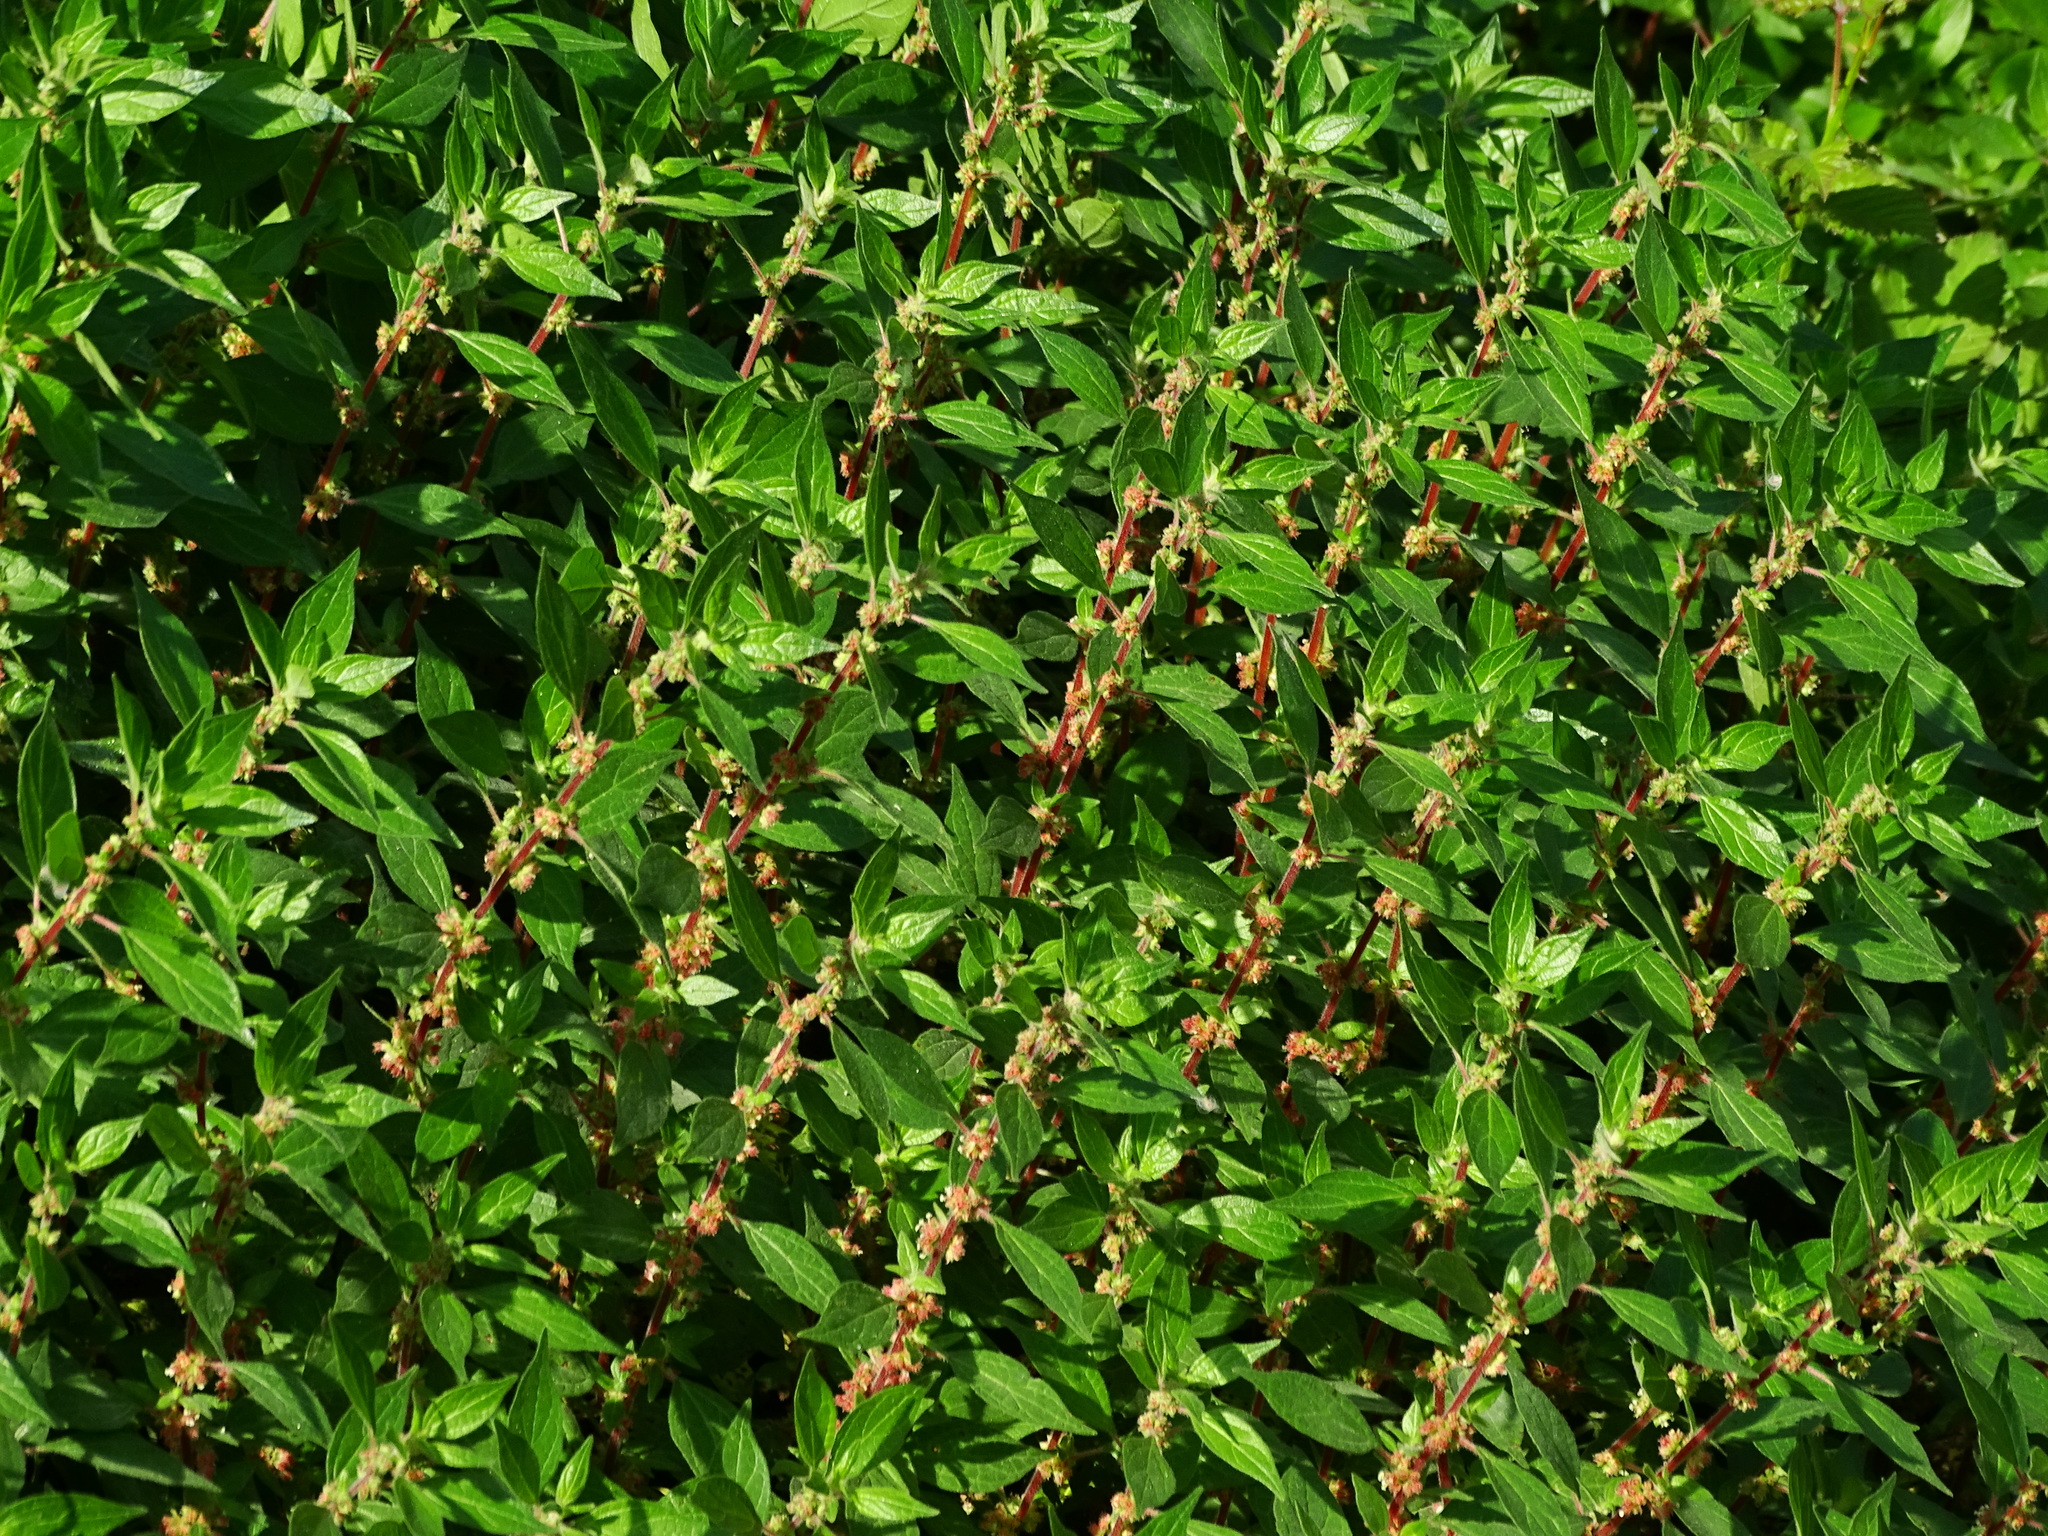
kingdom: Plantae
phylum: Tracheophyta
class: Magnoliopsida
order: Rosales
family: Urticaceae
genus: Parietaria
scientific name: Parietaria judaica
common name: Pellitory-of-the-wall
